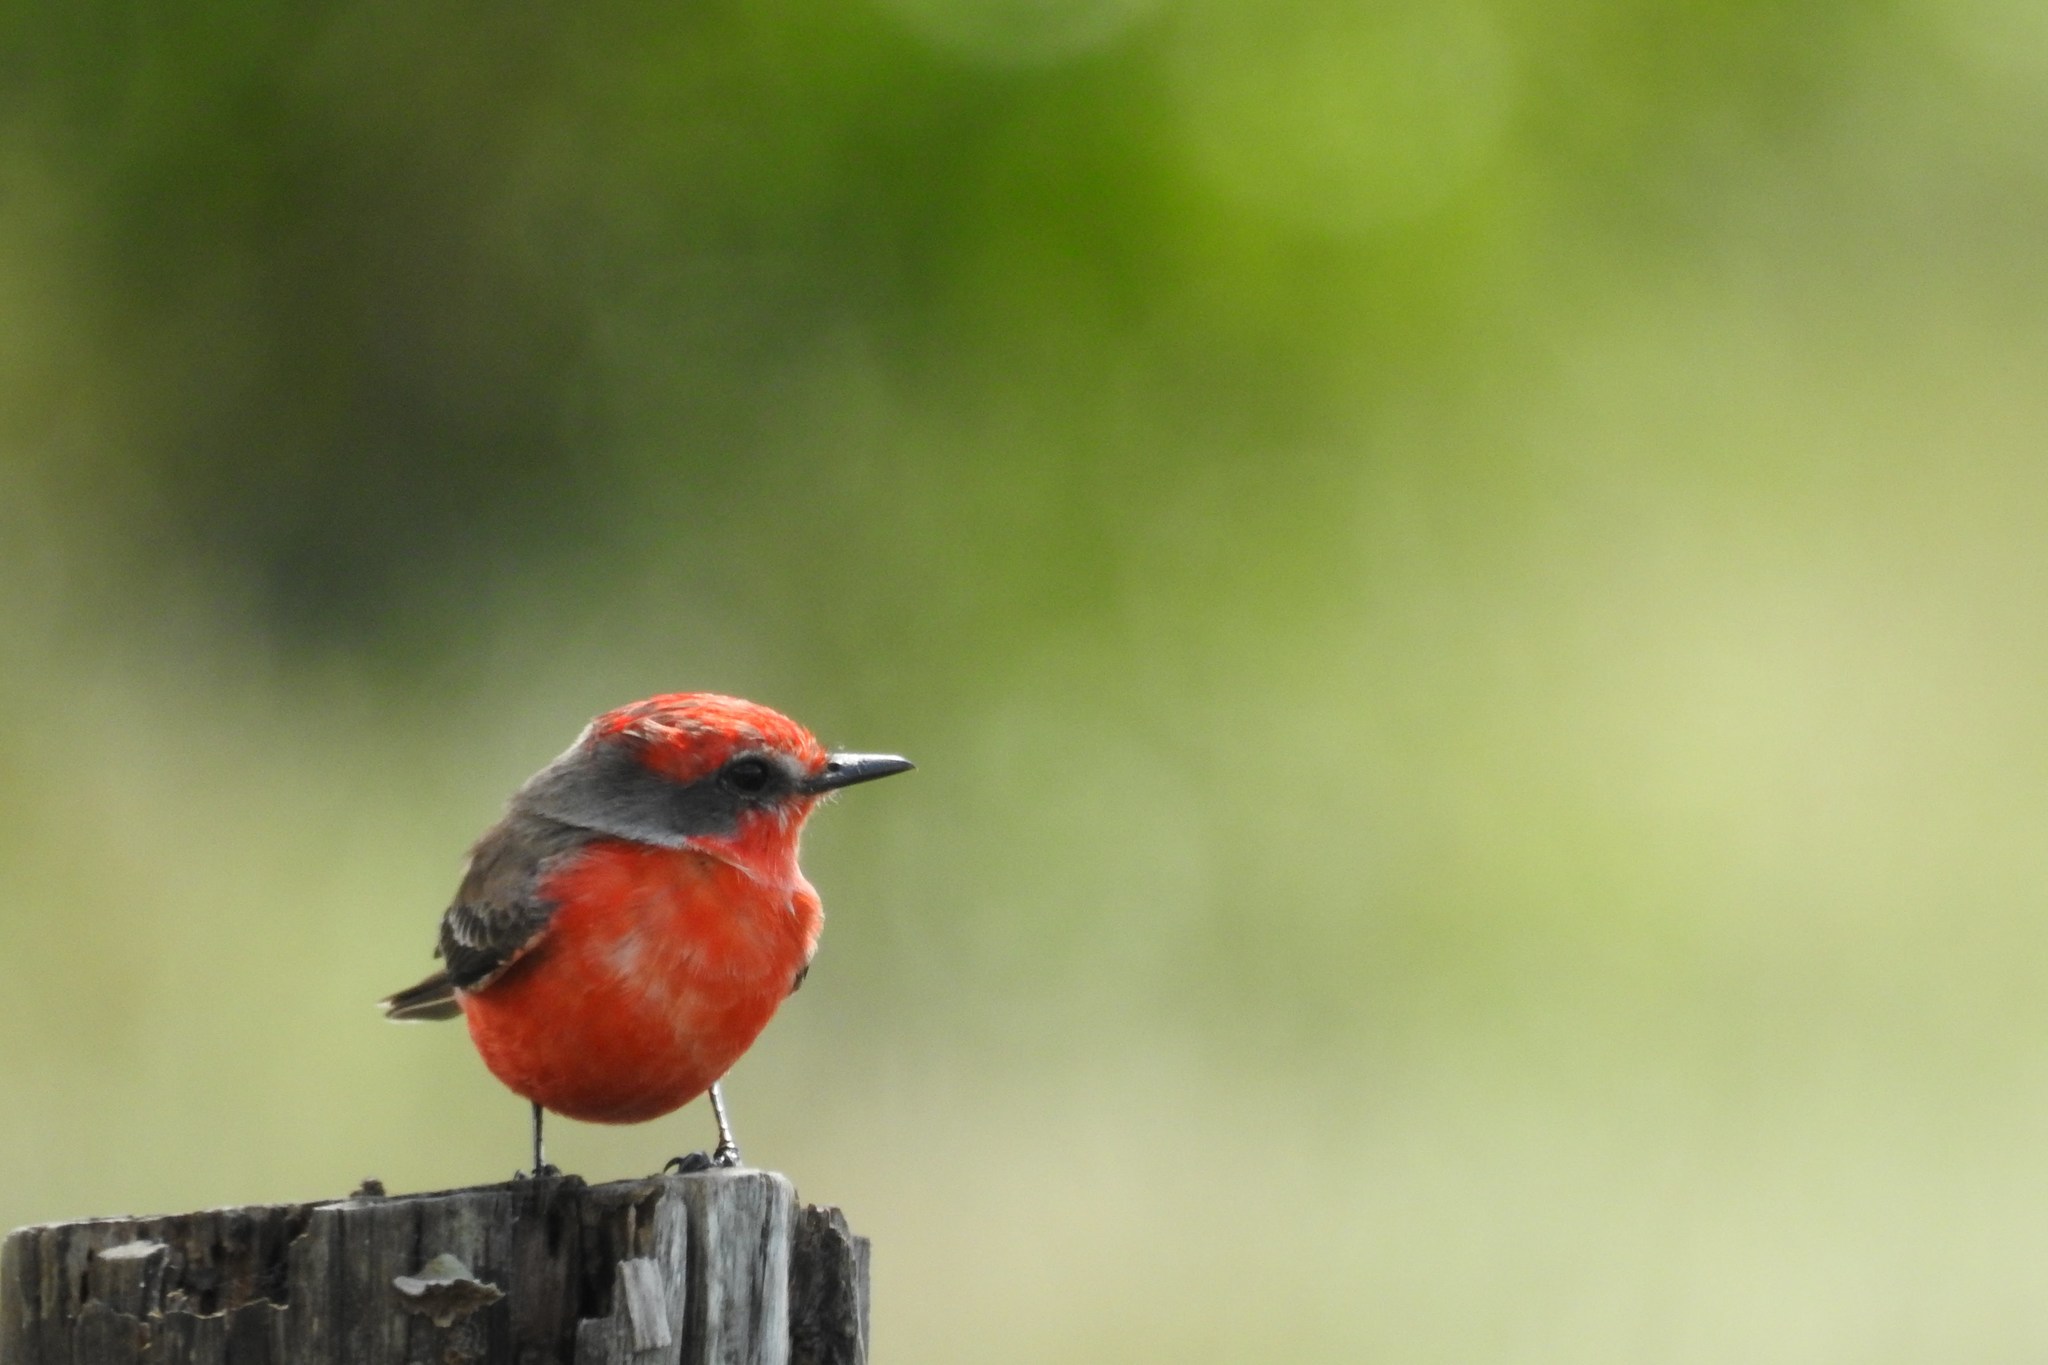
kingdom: Animalia
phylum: Chordata
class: Aves
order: Passeriformes
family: Tyrannidae
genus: Pyrocephalus
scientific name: Pyrocephalus rubinus
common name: Vermilion flycatcher
